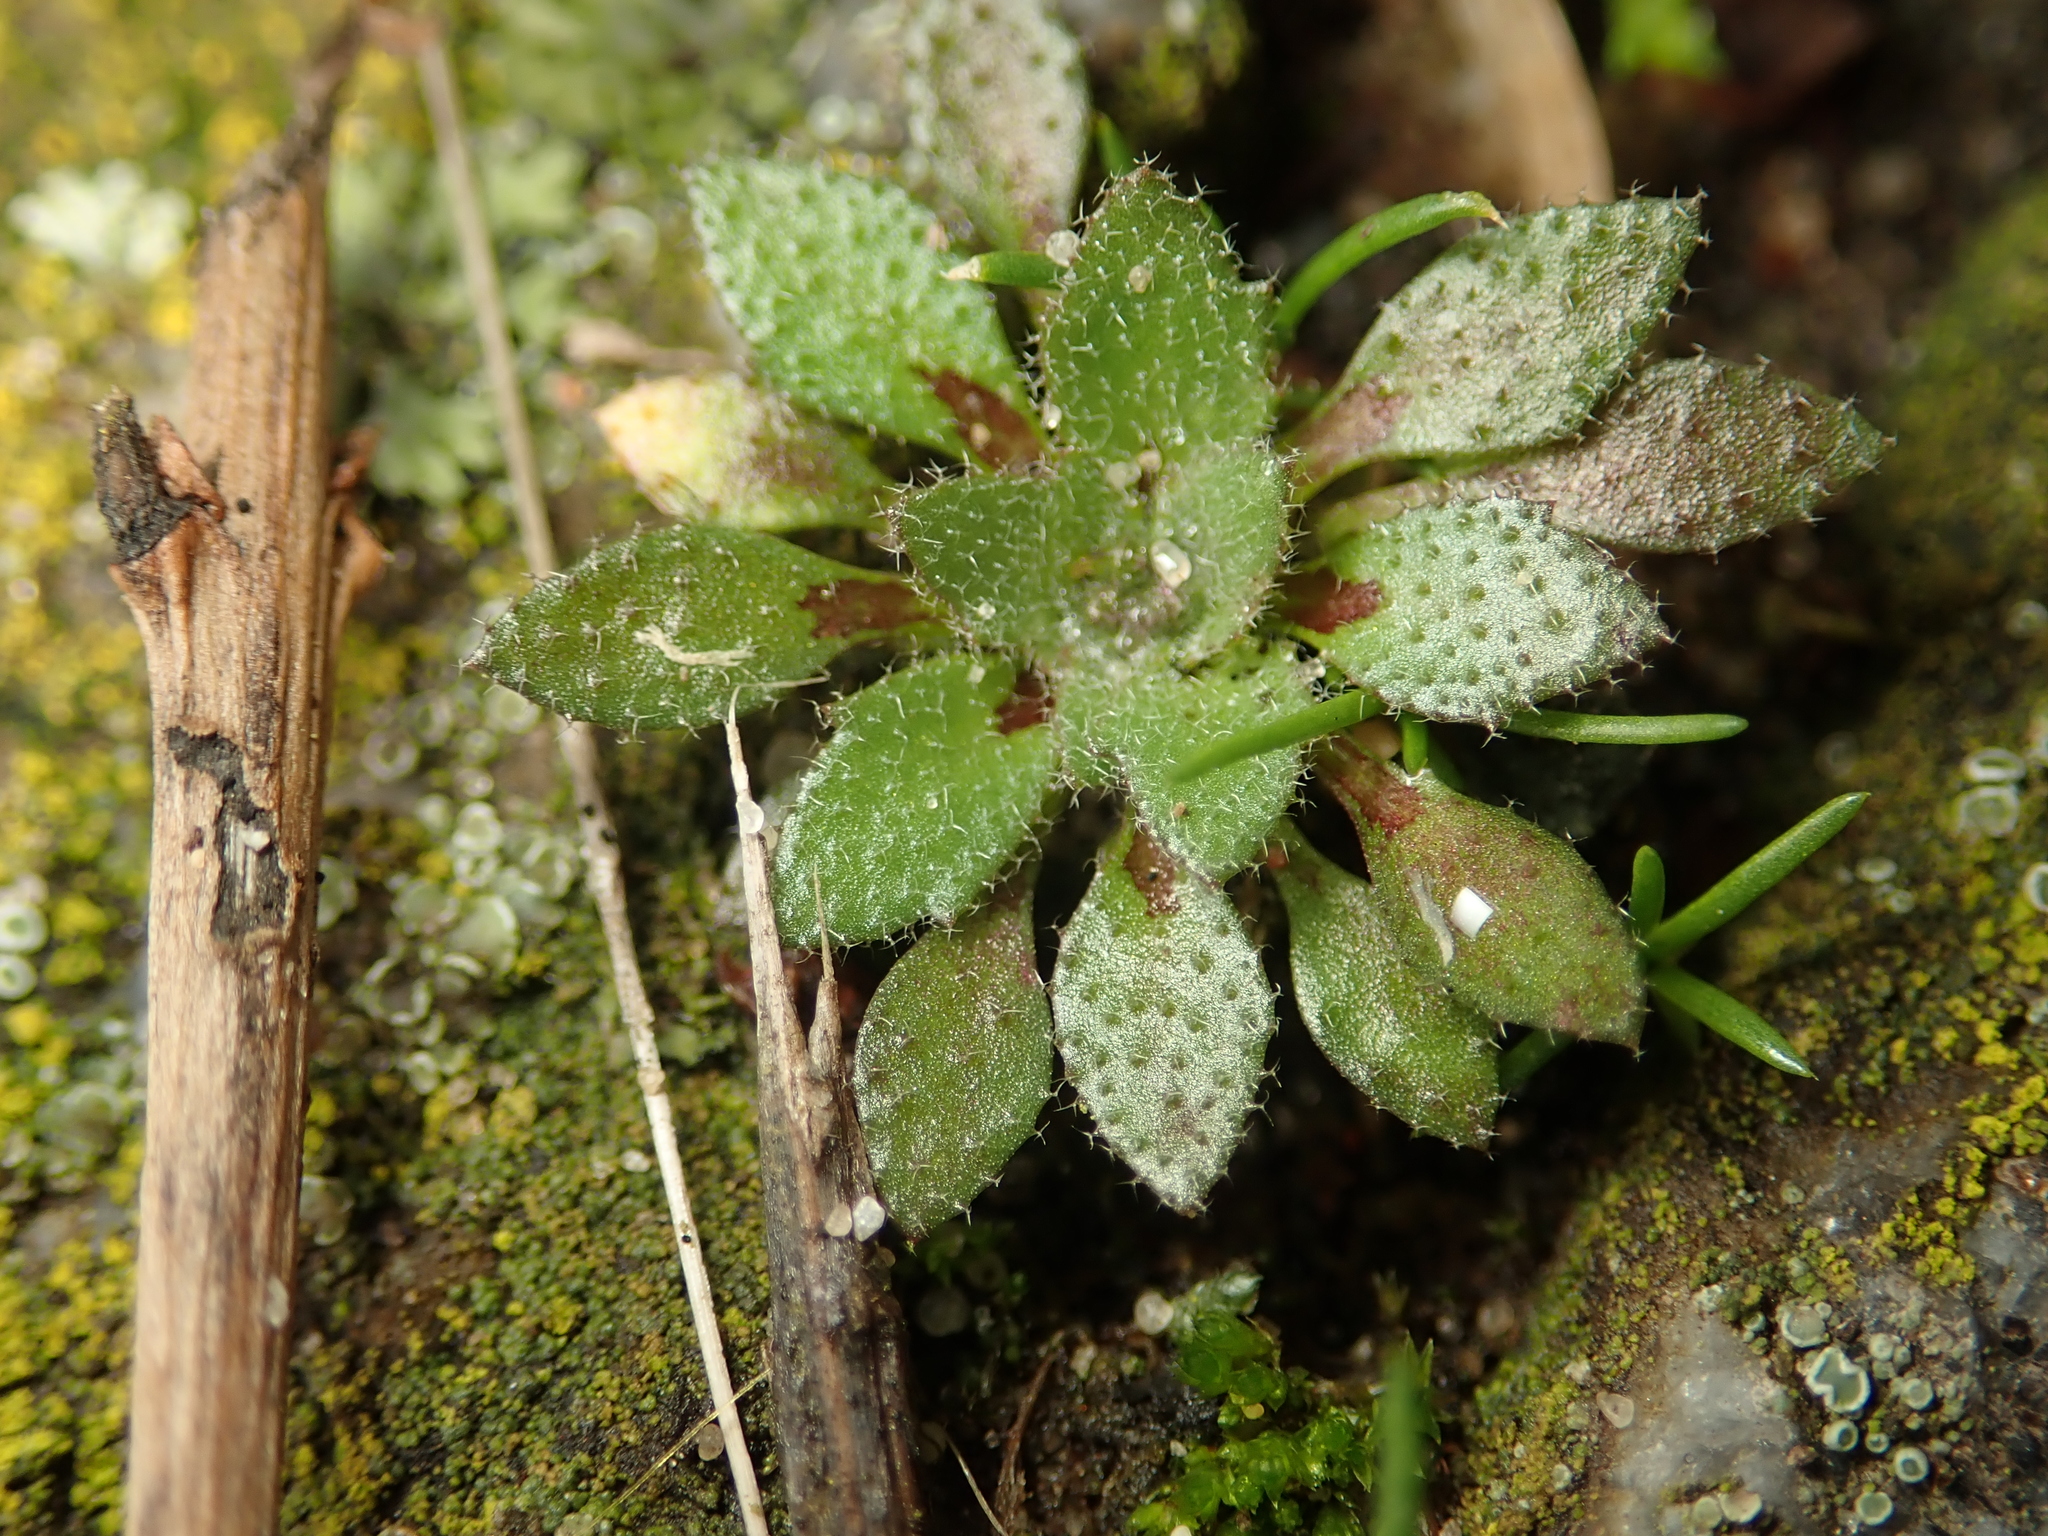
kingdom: Plantae
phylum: Tracheophyta
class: Magnoliopsida
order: Brassicales
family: Brassicaceae
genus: Draba
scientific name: Draba verna
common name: Spring draba
